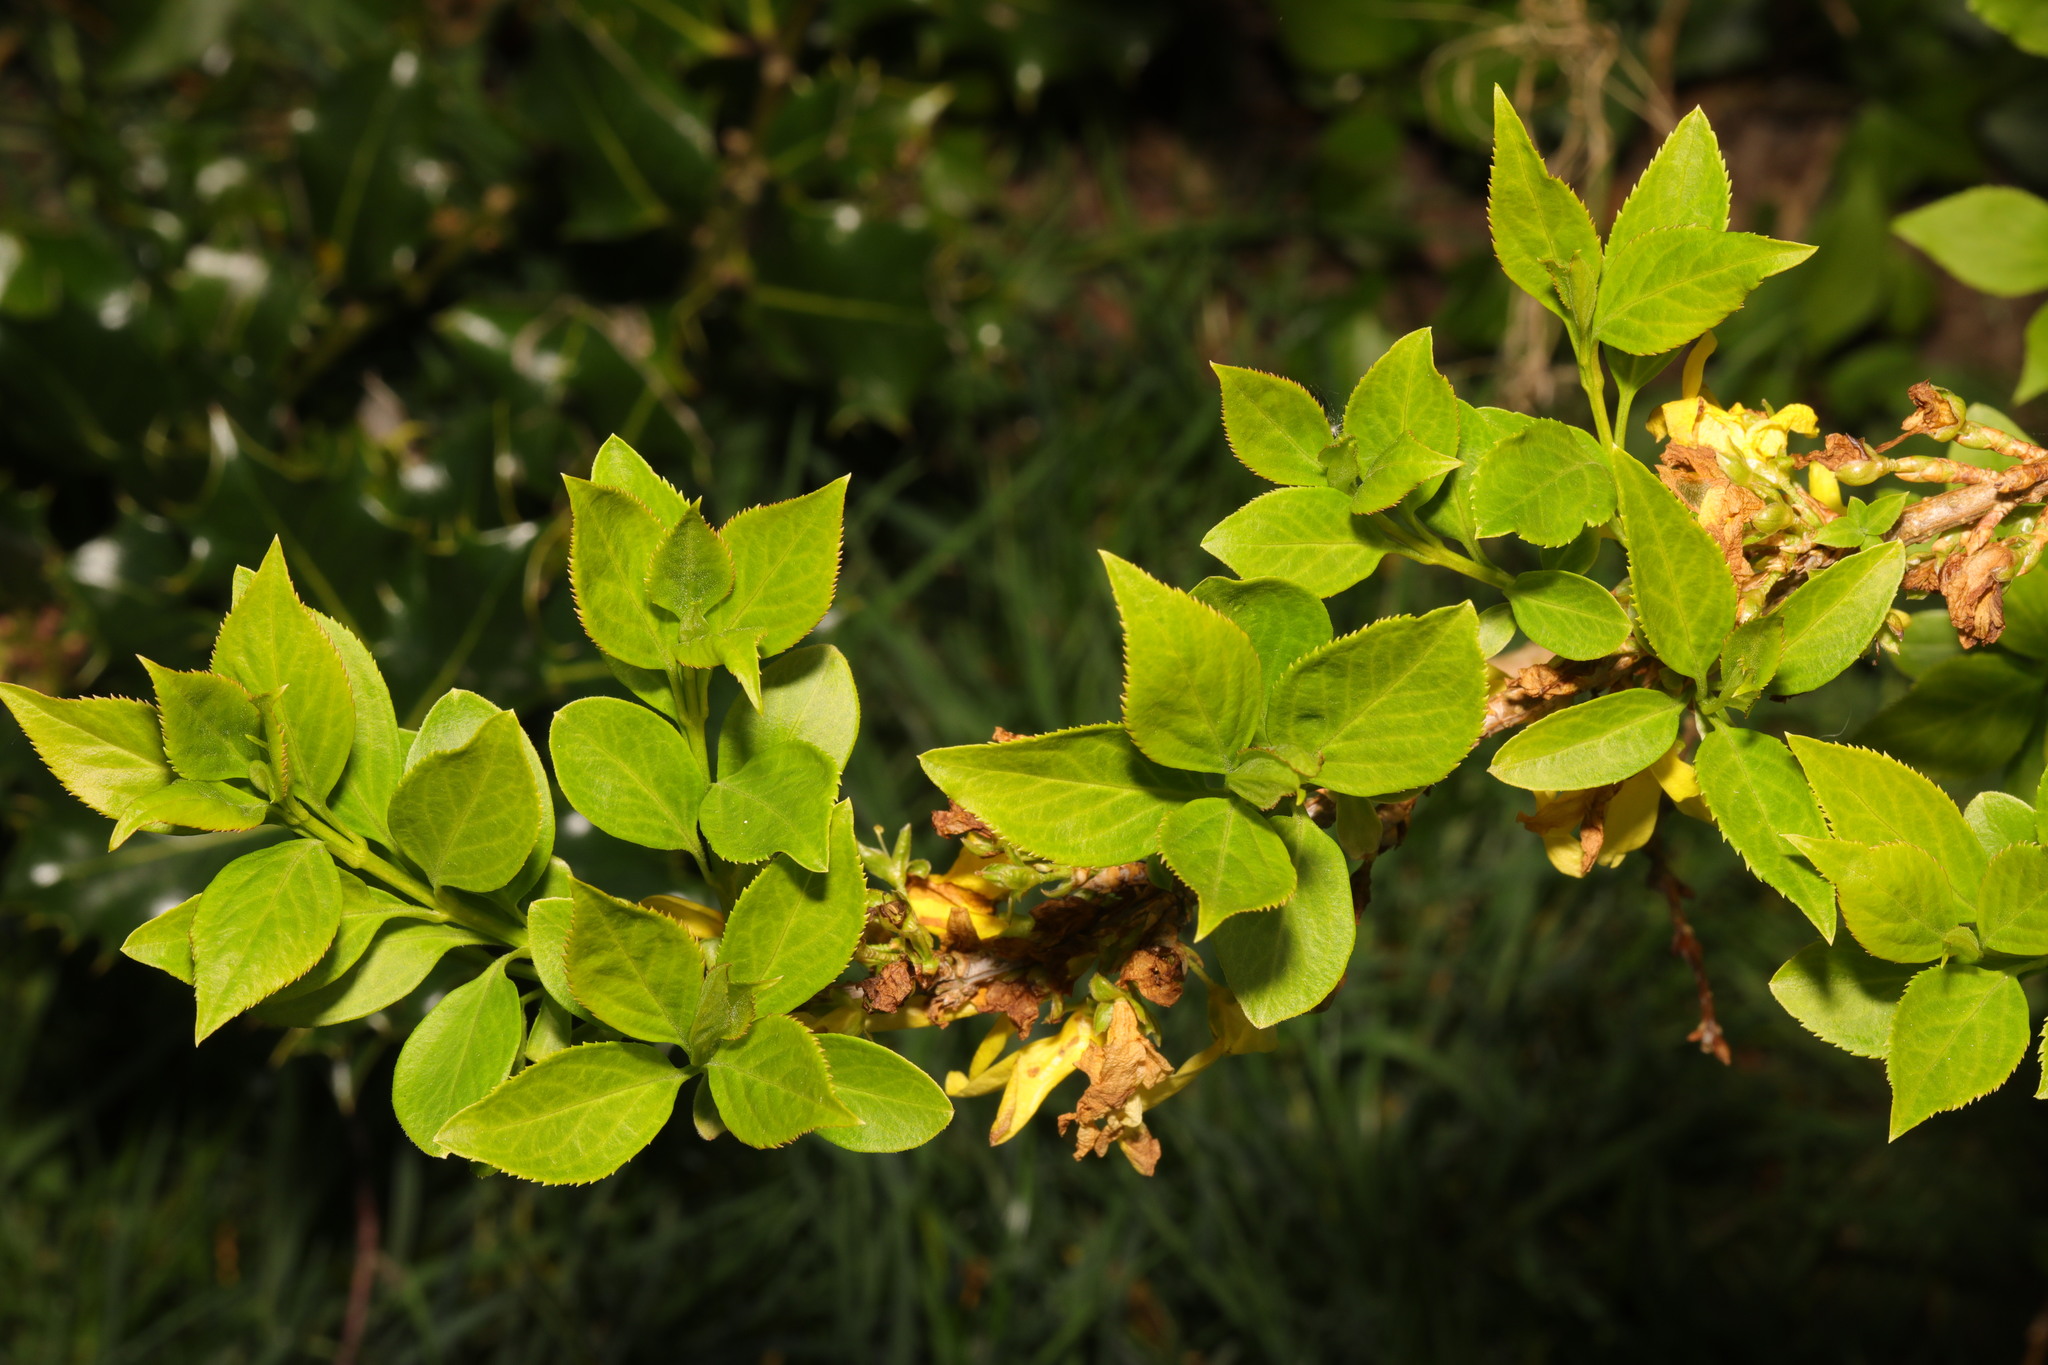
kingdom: Plantae
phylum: Tracheophyta
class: Magnoliopsida
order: Lamiales
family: Oleaceae
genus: Forsythia
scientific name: Forsythia intermedia
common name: Forsythia
